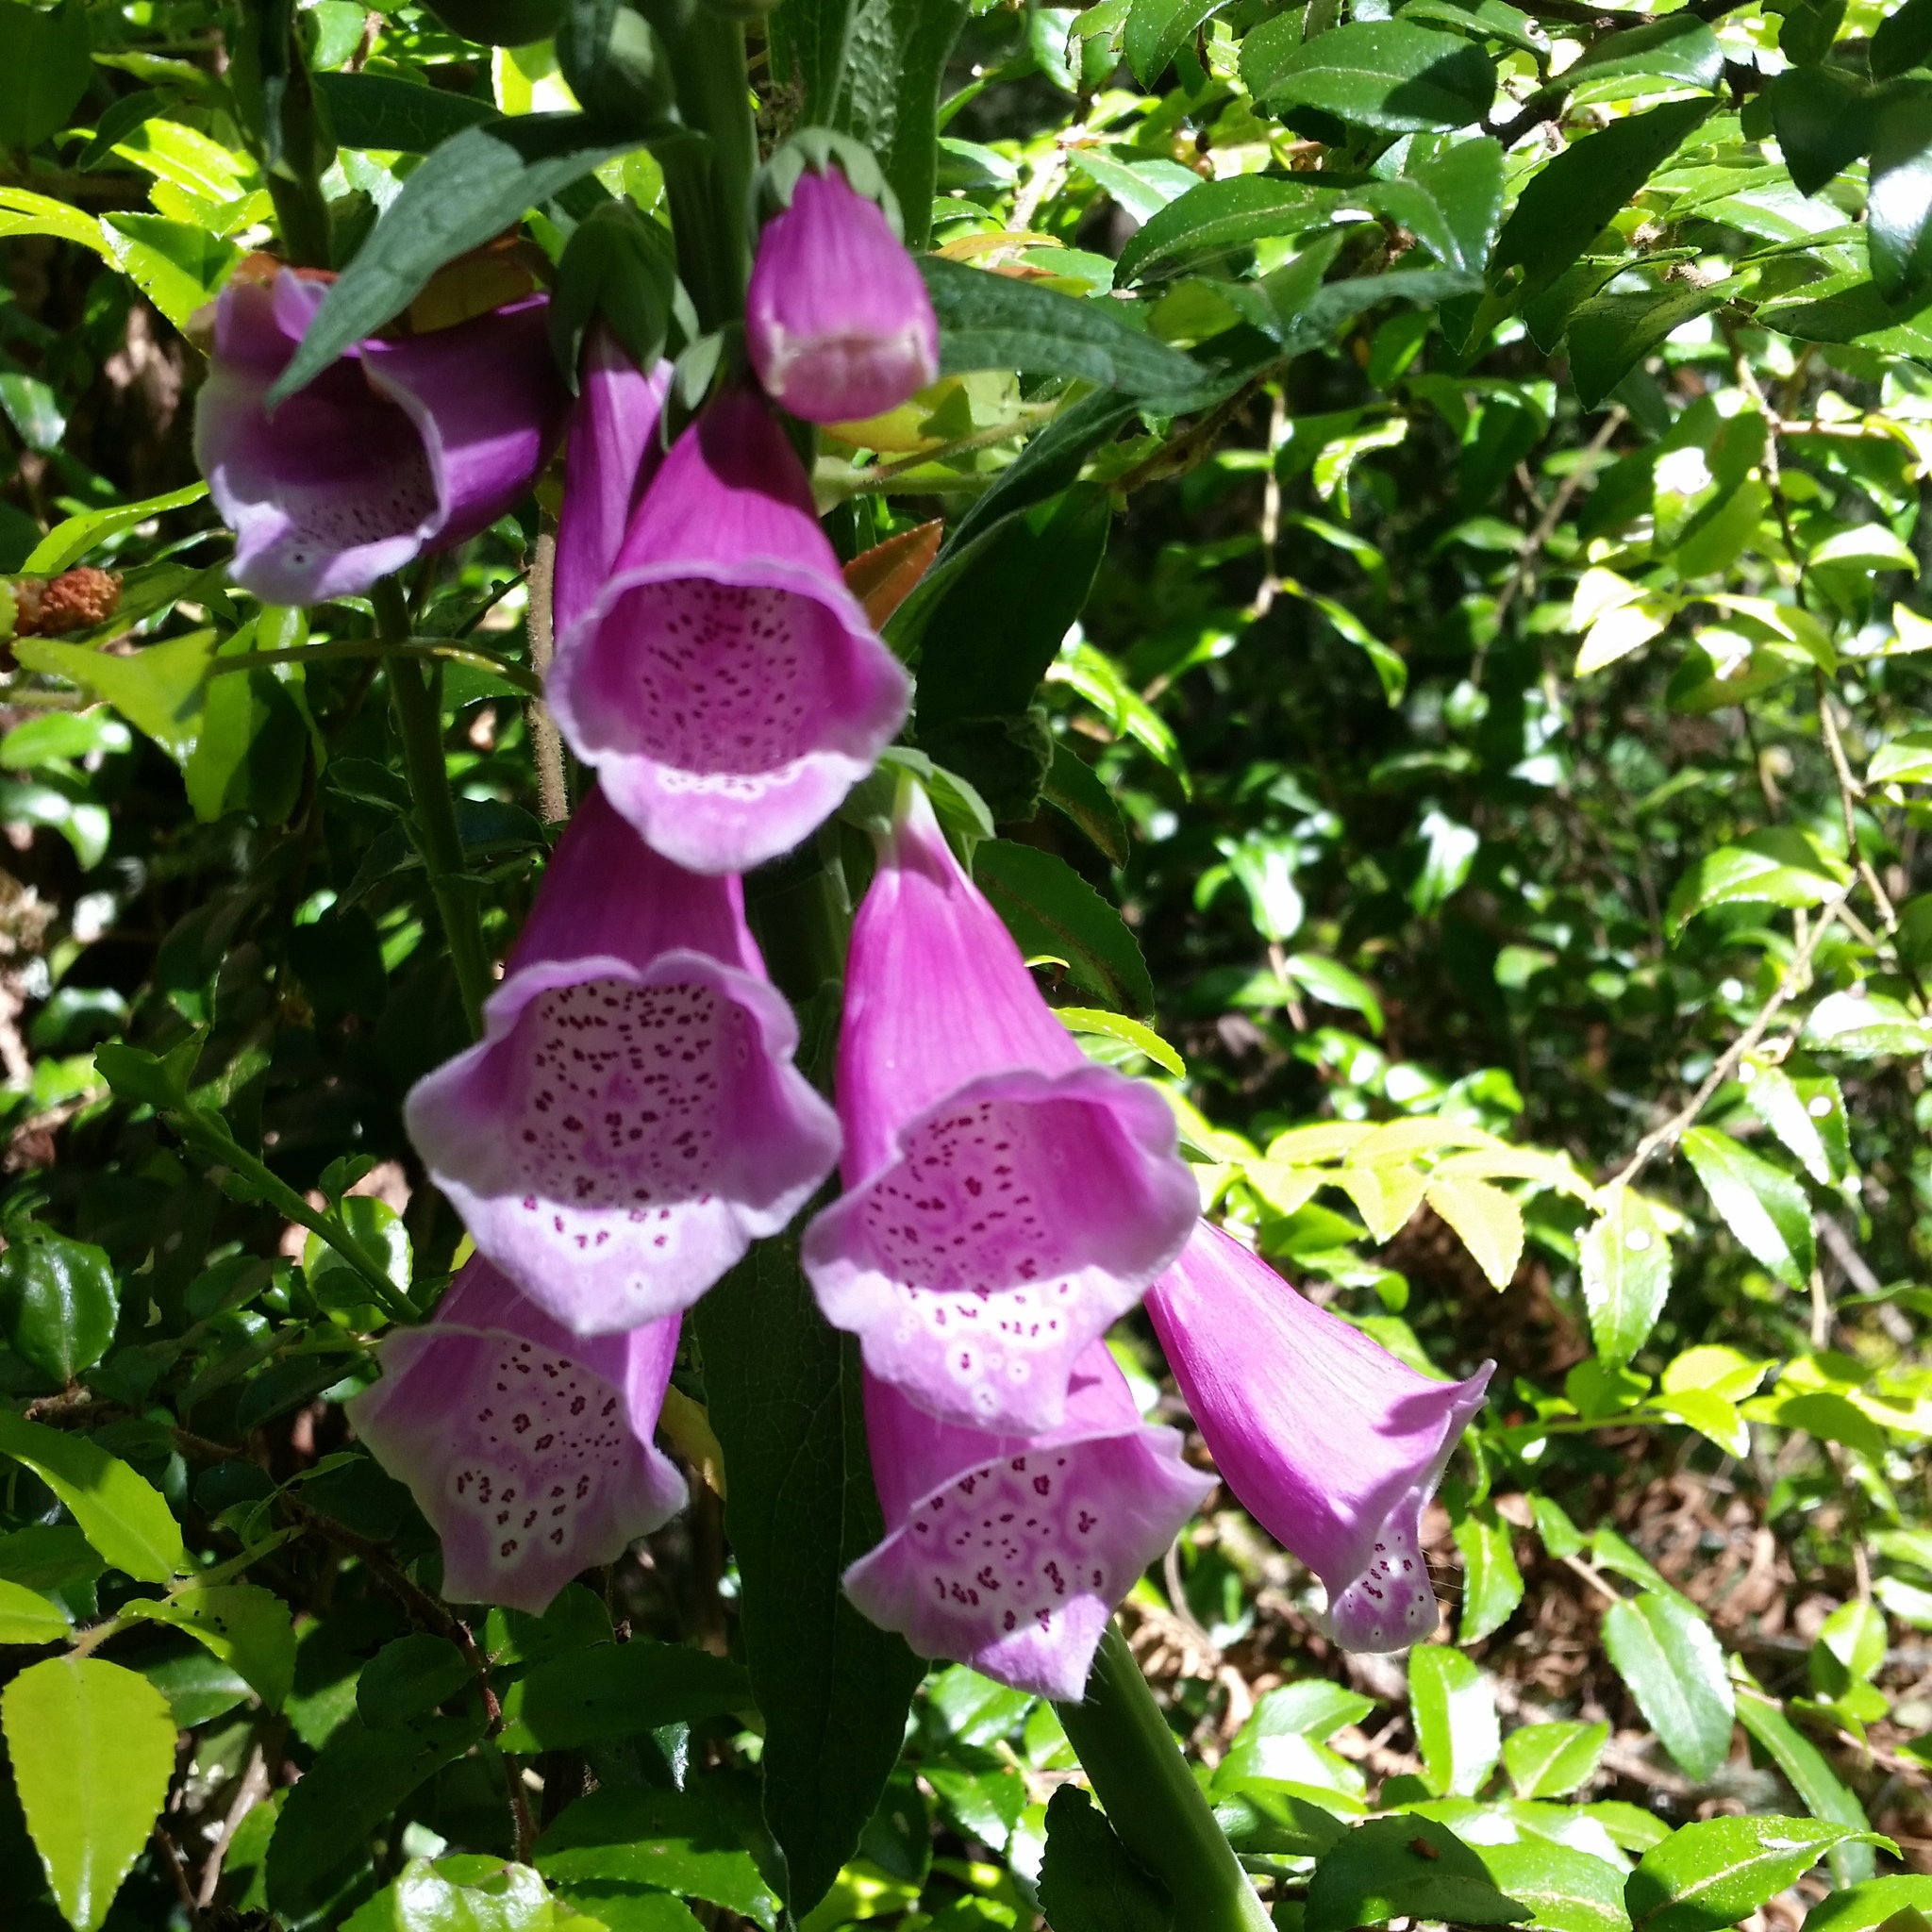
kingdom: Plantae
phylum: Tracheophyta
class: Magnoliopsida
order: Lamiales
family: Plantaginaceae
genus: Digitalis
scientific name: Digitalis purpurea
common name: Foxglove
